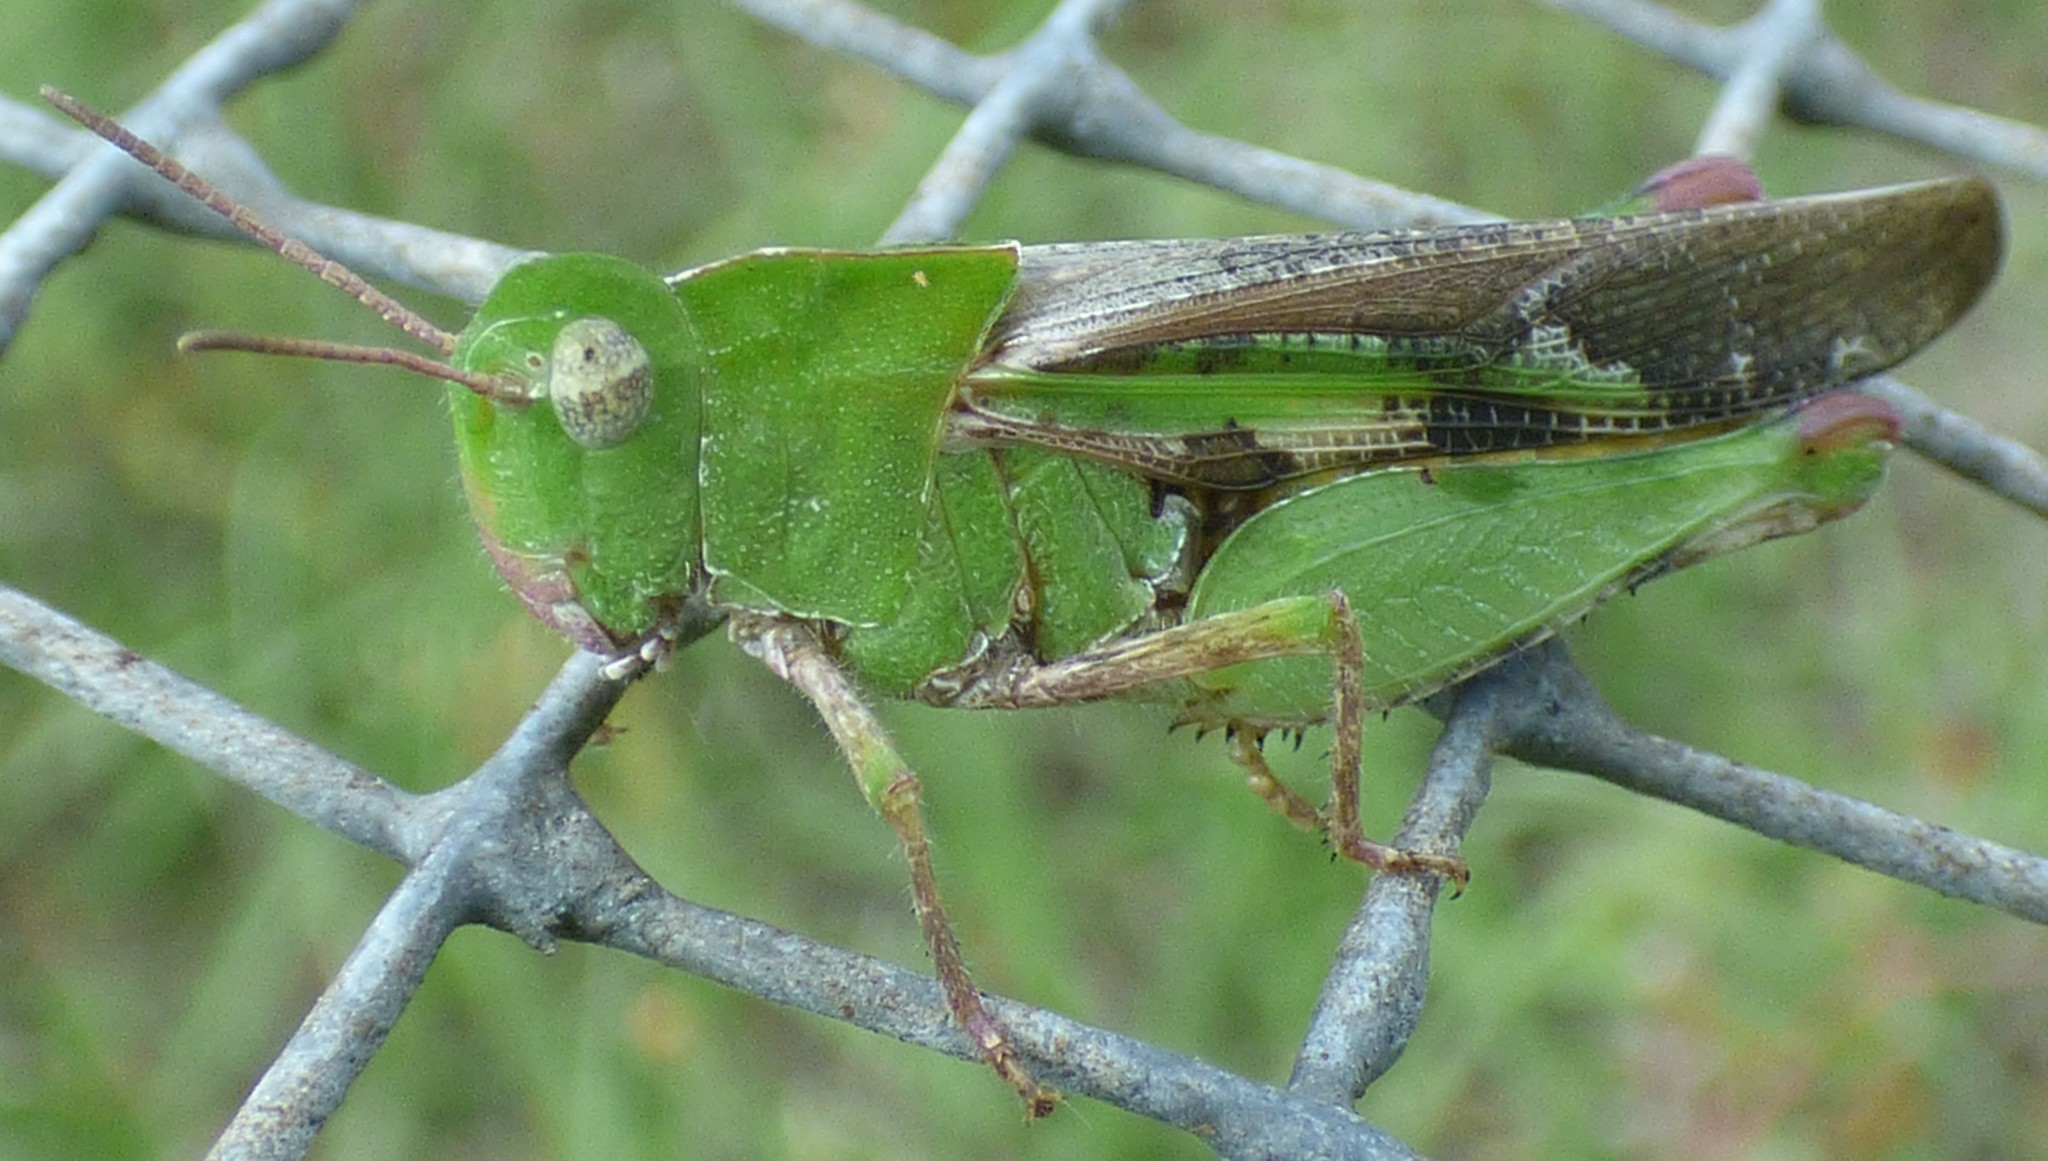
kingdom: Animalia
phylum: Arthropoda
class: Insecta
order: Orthoptera
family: Acrididae
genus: Chortophaga
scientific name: Chortophaga australior
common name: Southern green-striped grasshopper
